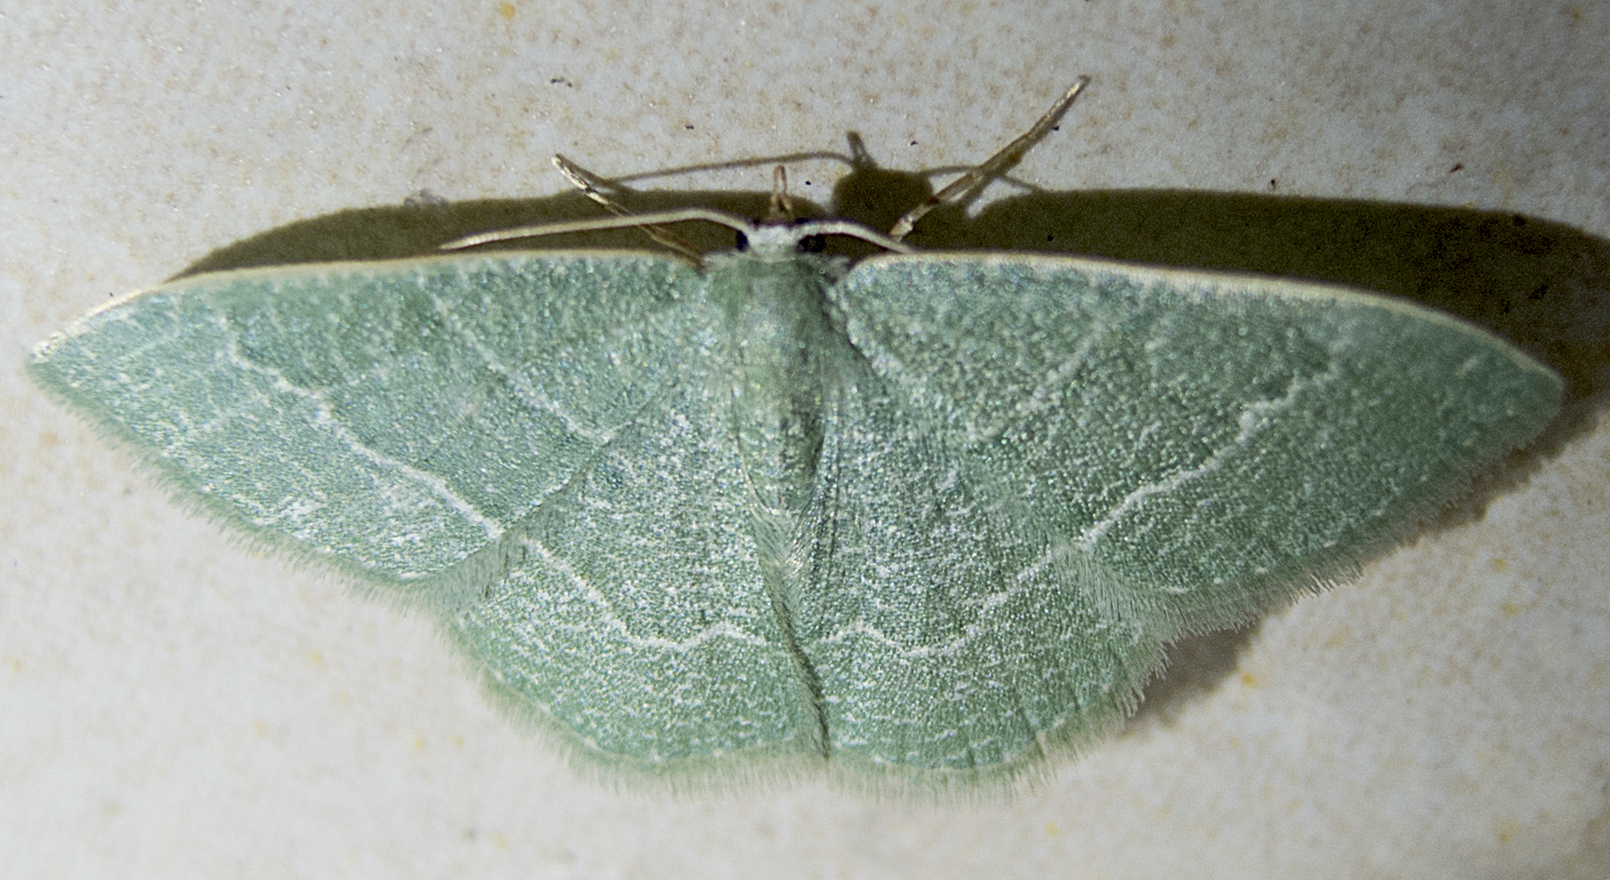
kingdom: Animalia
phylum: Arthropoda
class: Insecta
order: Lepidoptera
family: Geometridae
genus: Chlorissa
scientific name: Chlorissa etruscaria
